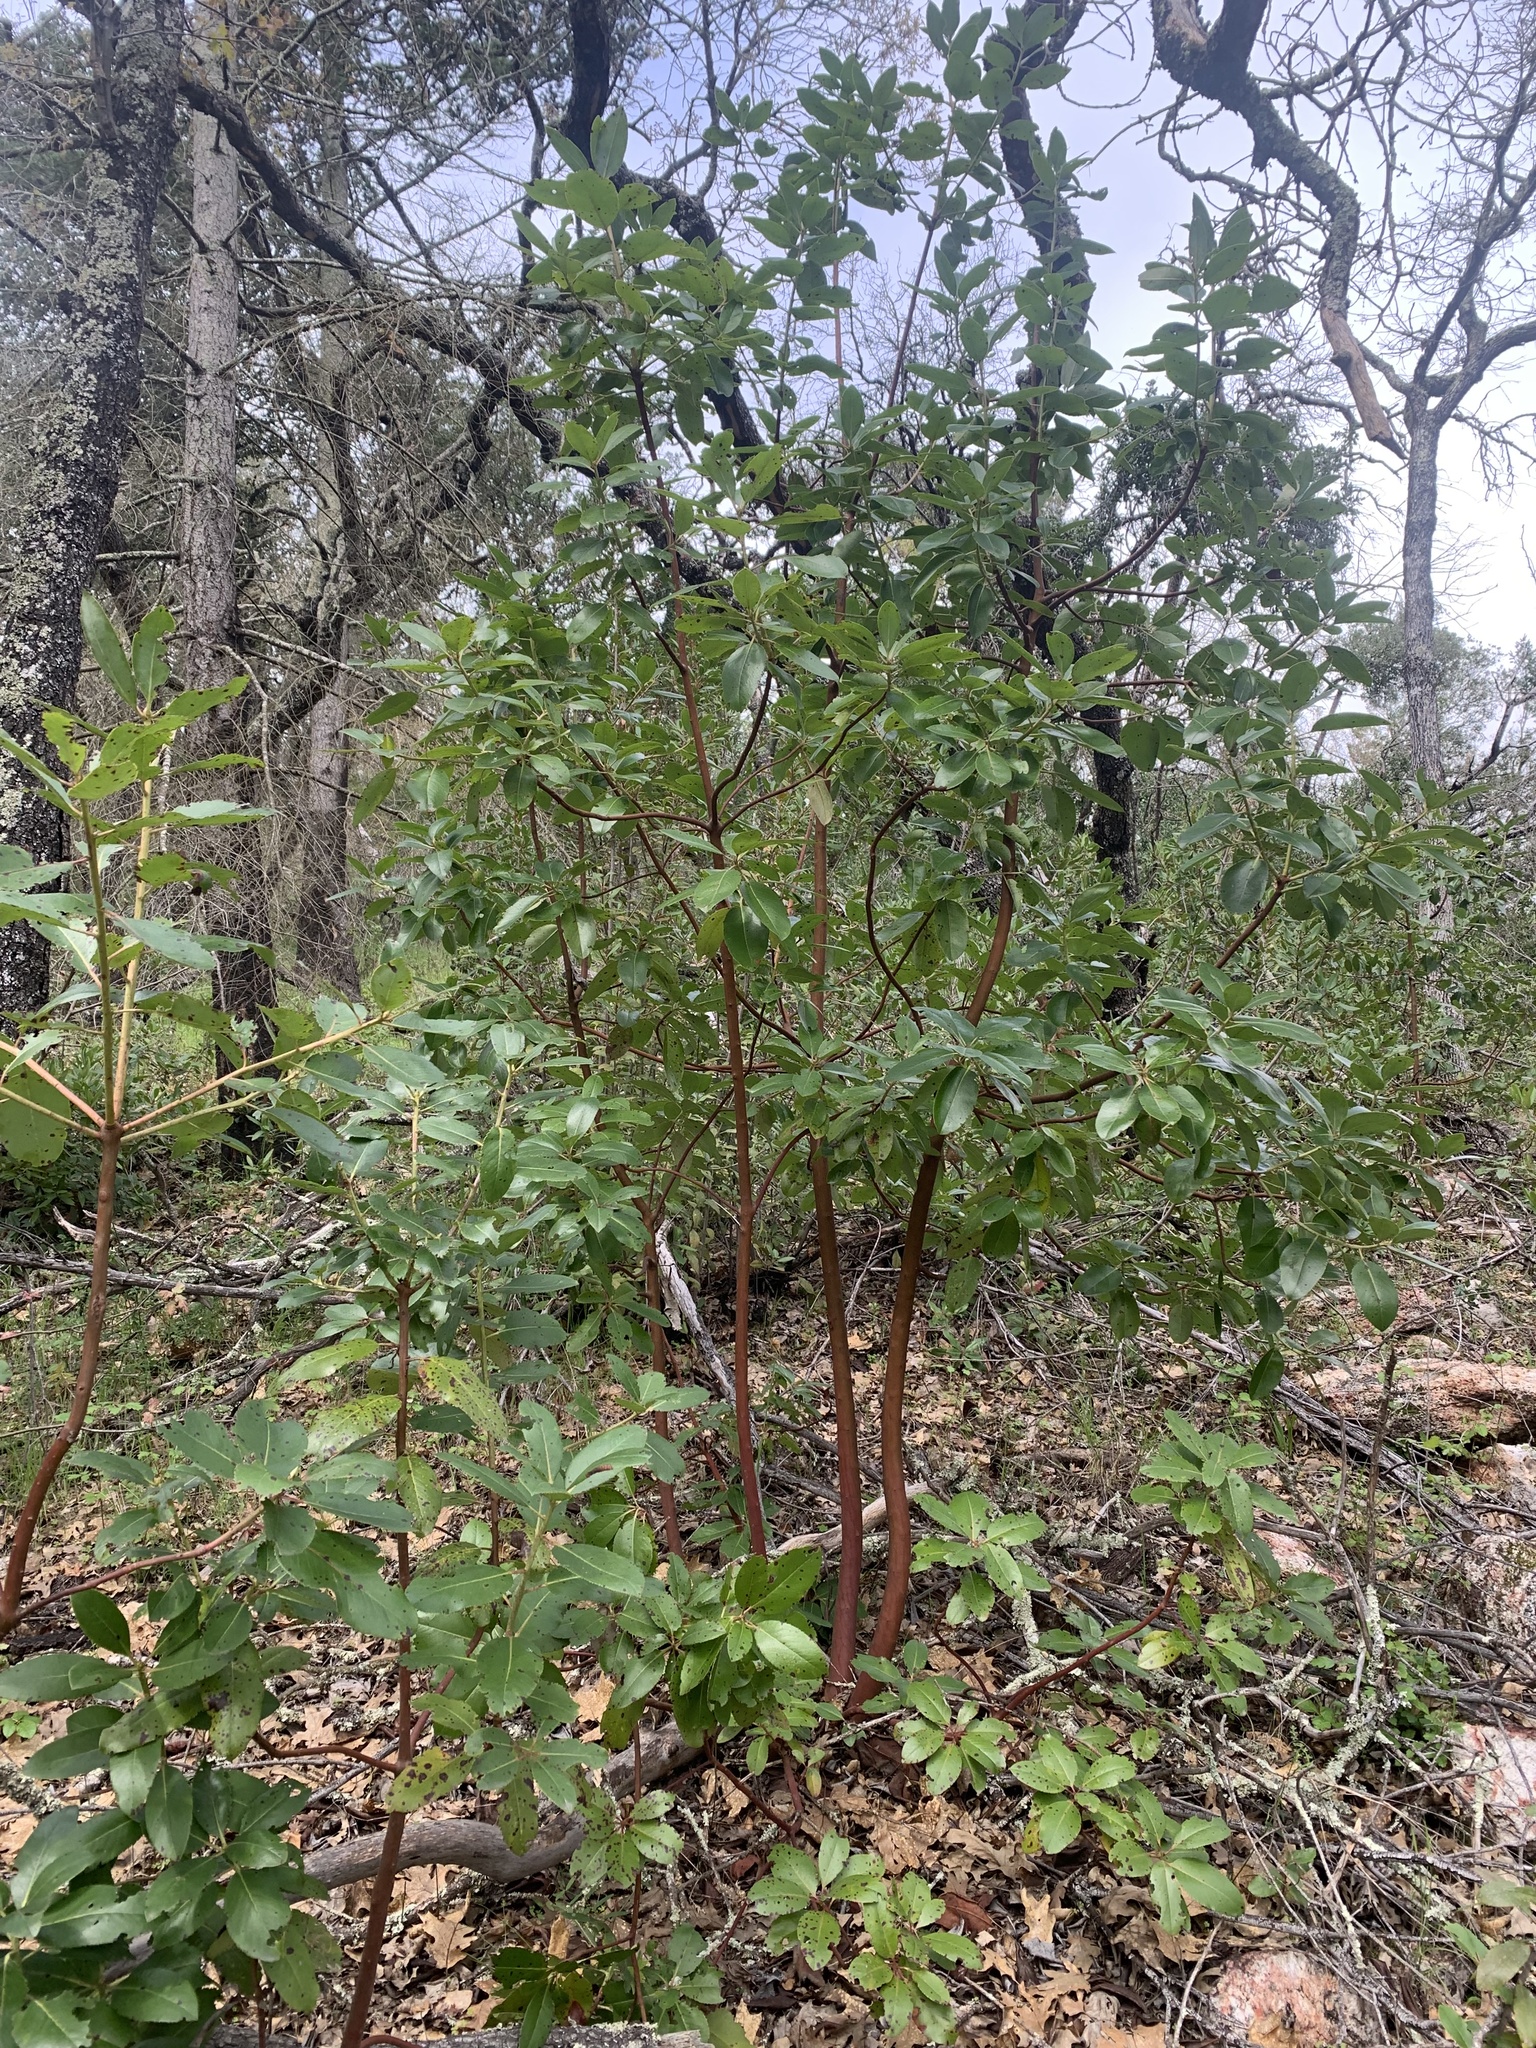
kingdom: Plantae
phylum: Tracheophyta
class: Magnoliopsida
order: Ericales
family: Ericaceae
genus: Arbutus
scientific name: Arbutus menziesii
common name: Pacific madrone
